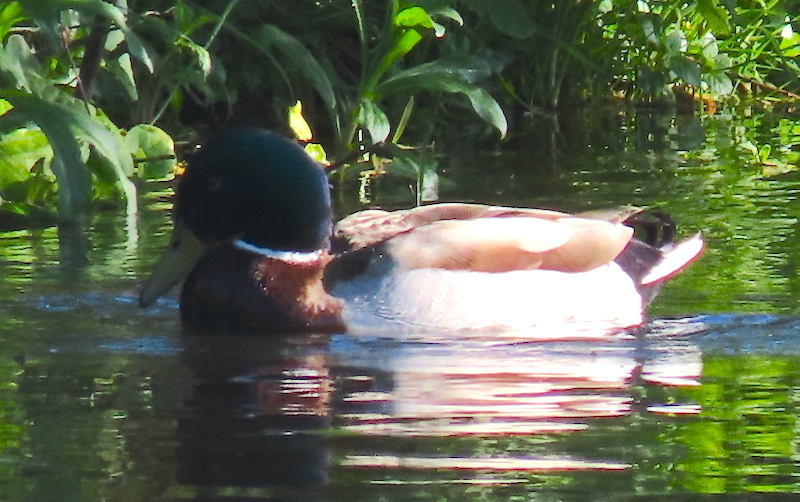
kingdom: Animalia
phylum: Chordata
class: Aves
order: Anseriformes
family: Anatidae
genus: Anas
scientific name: Anas platyrhynchos
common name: Mallard
